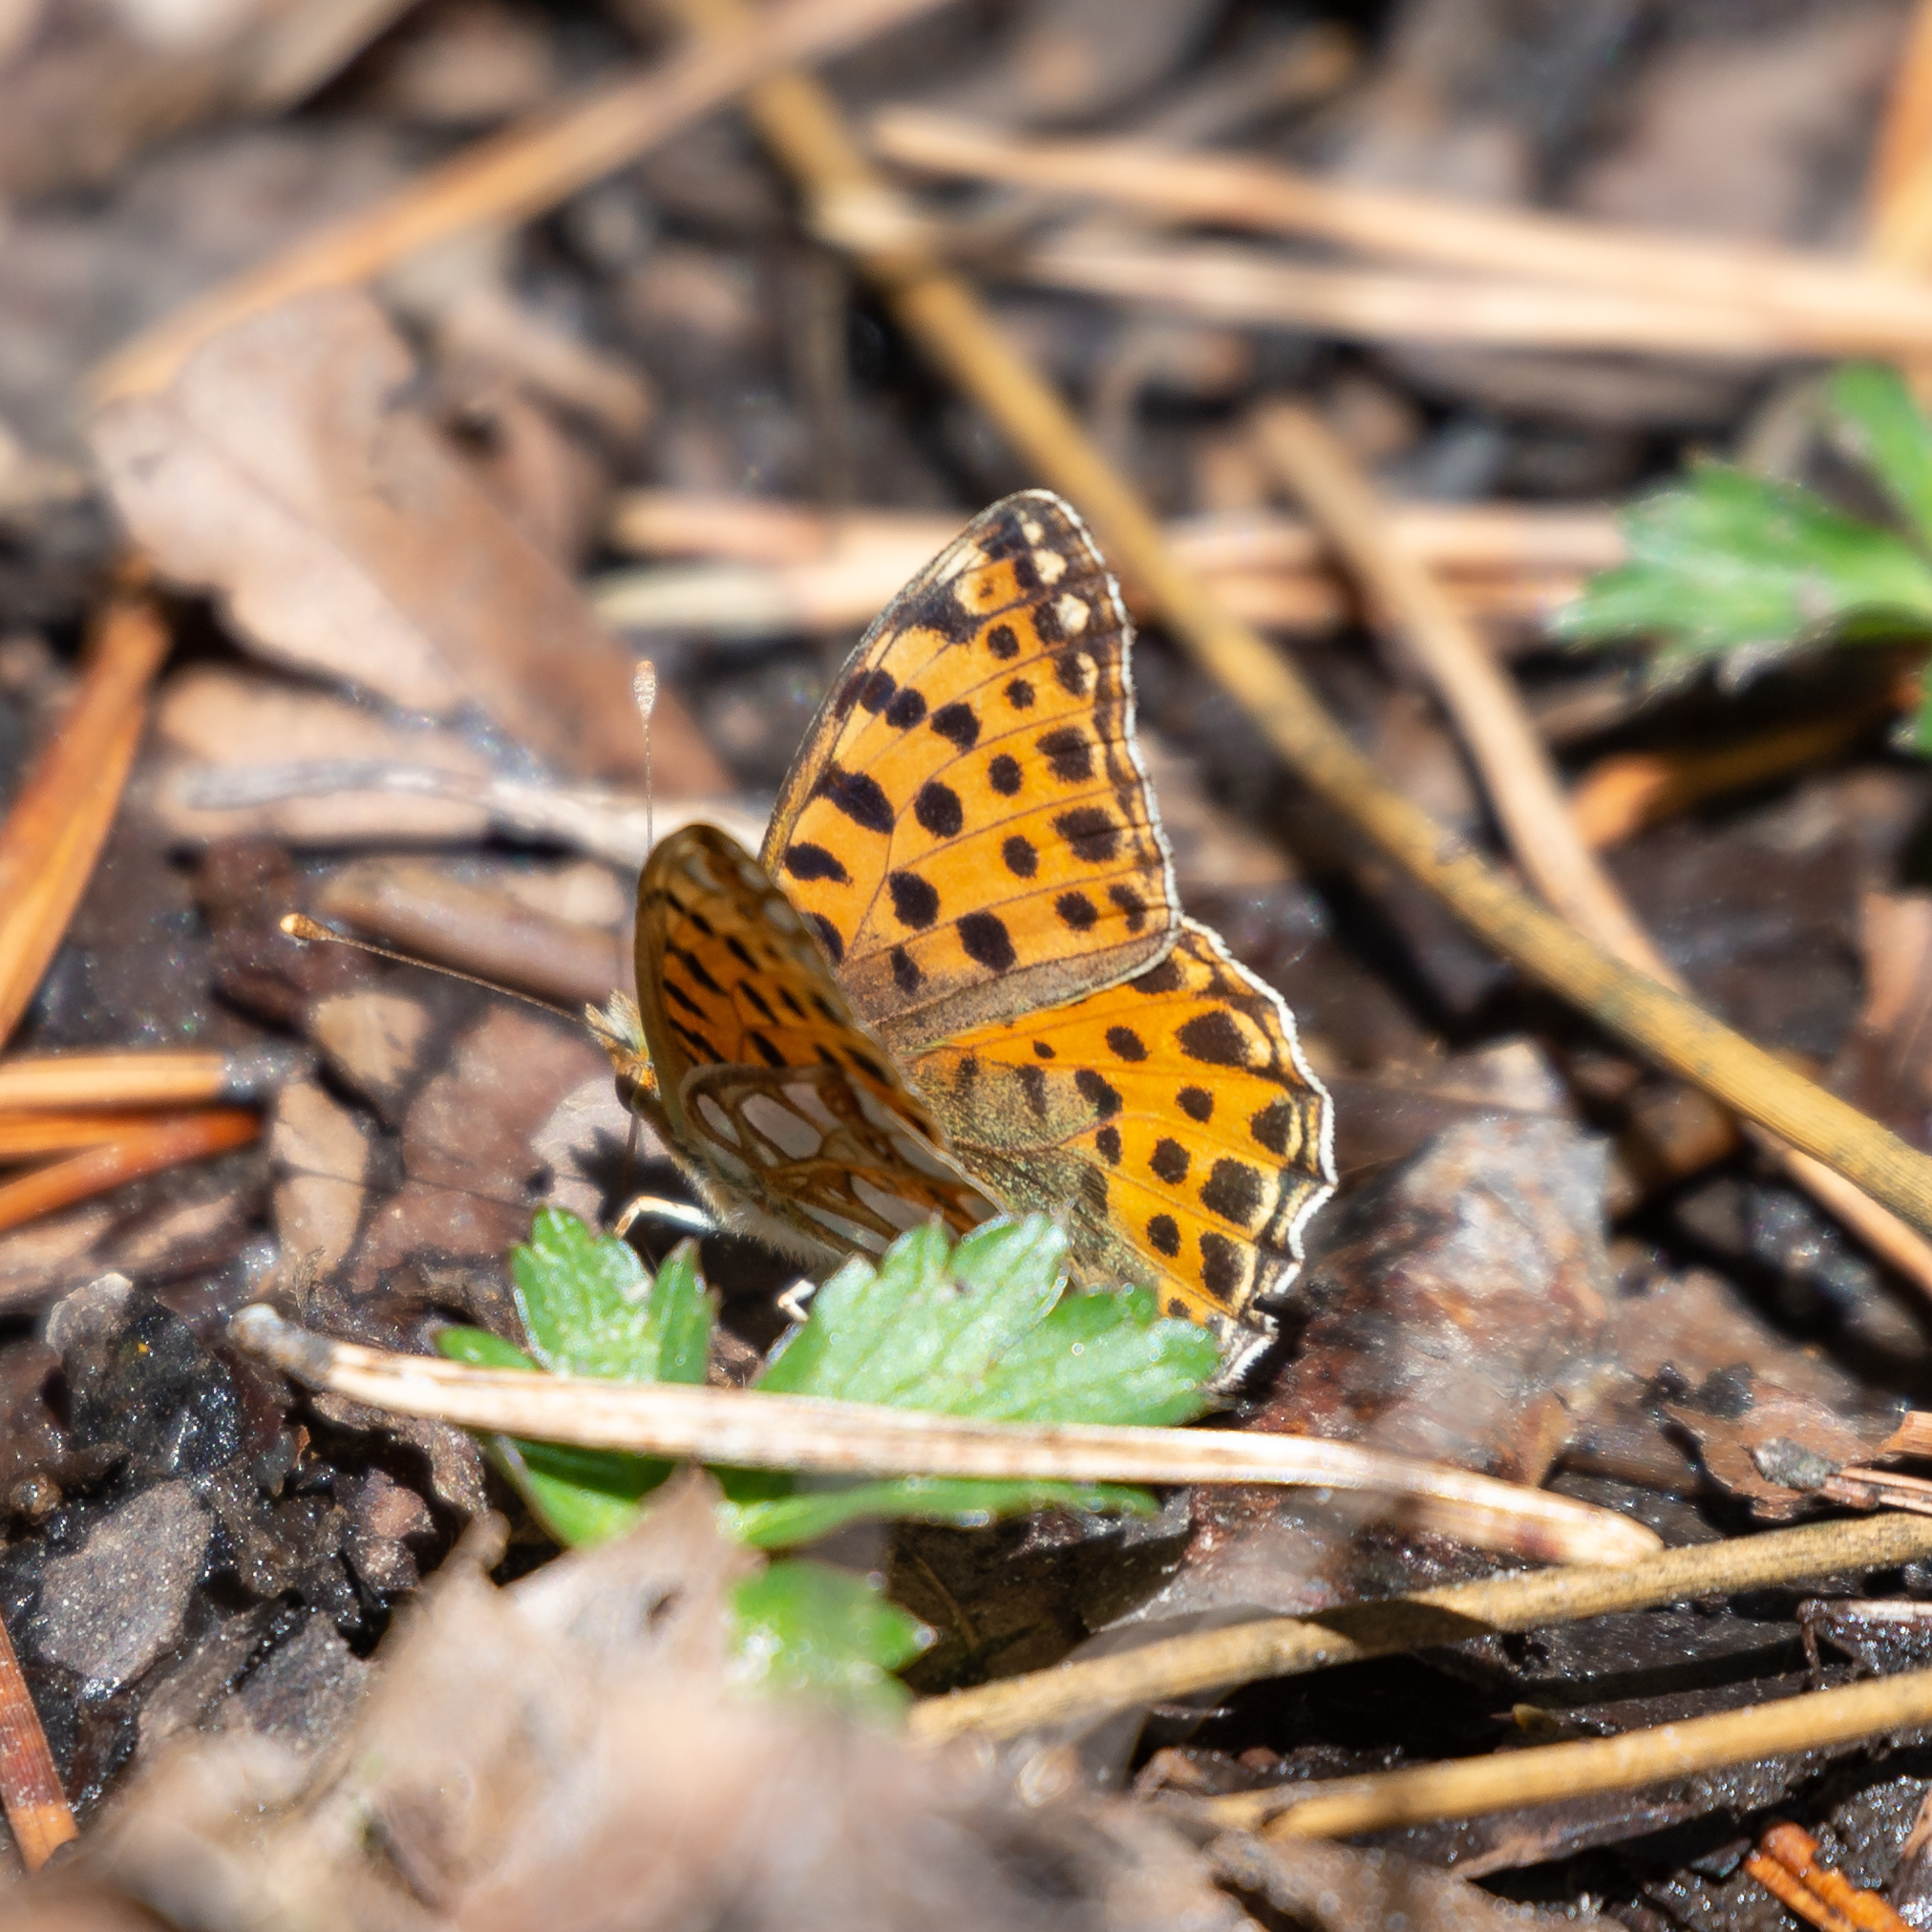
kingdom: Animalia
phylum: Arthropoda
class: Insecta
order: Lepidoptera
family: Nymphalidae
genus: Issoria
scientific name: Issoria lathonia
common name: Queen of spain fritillary
